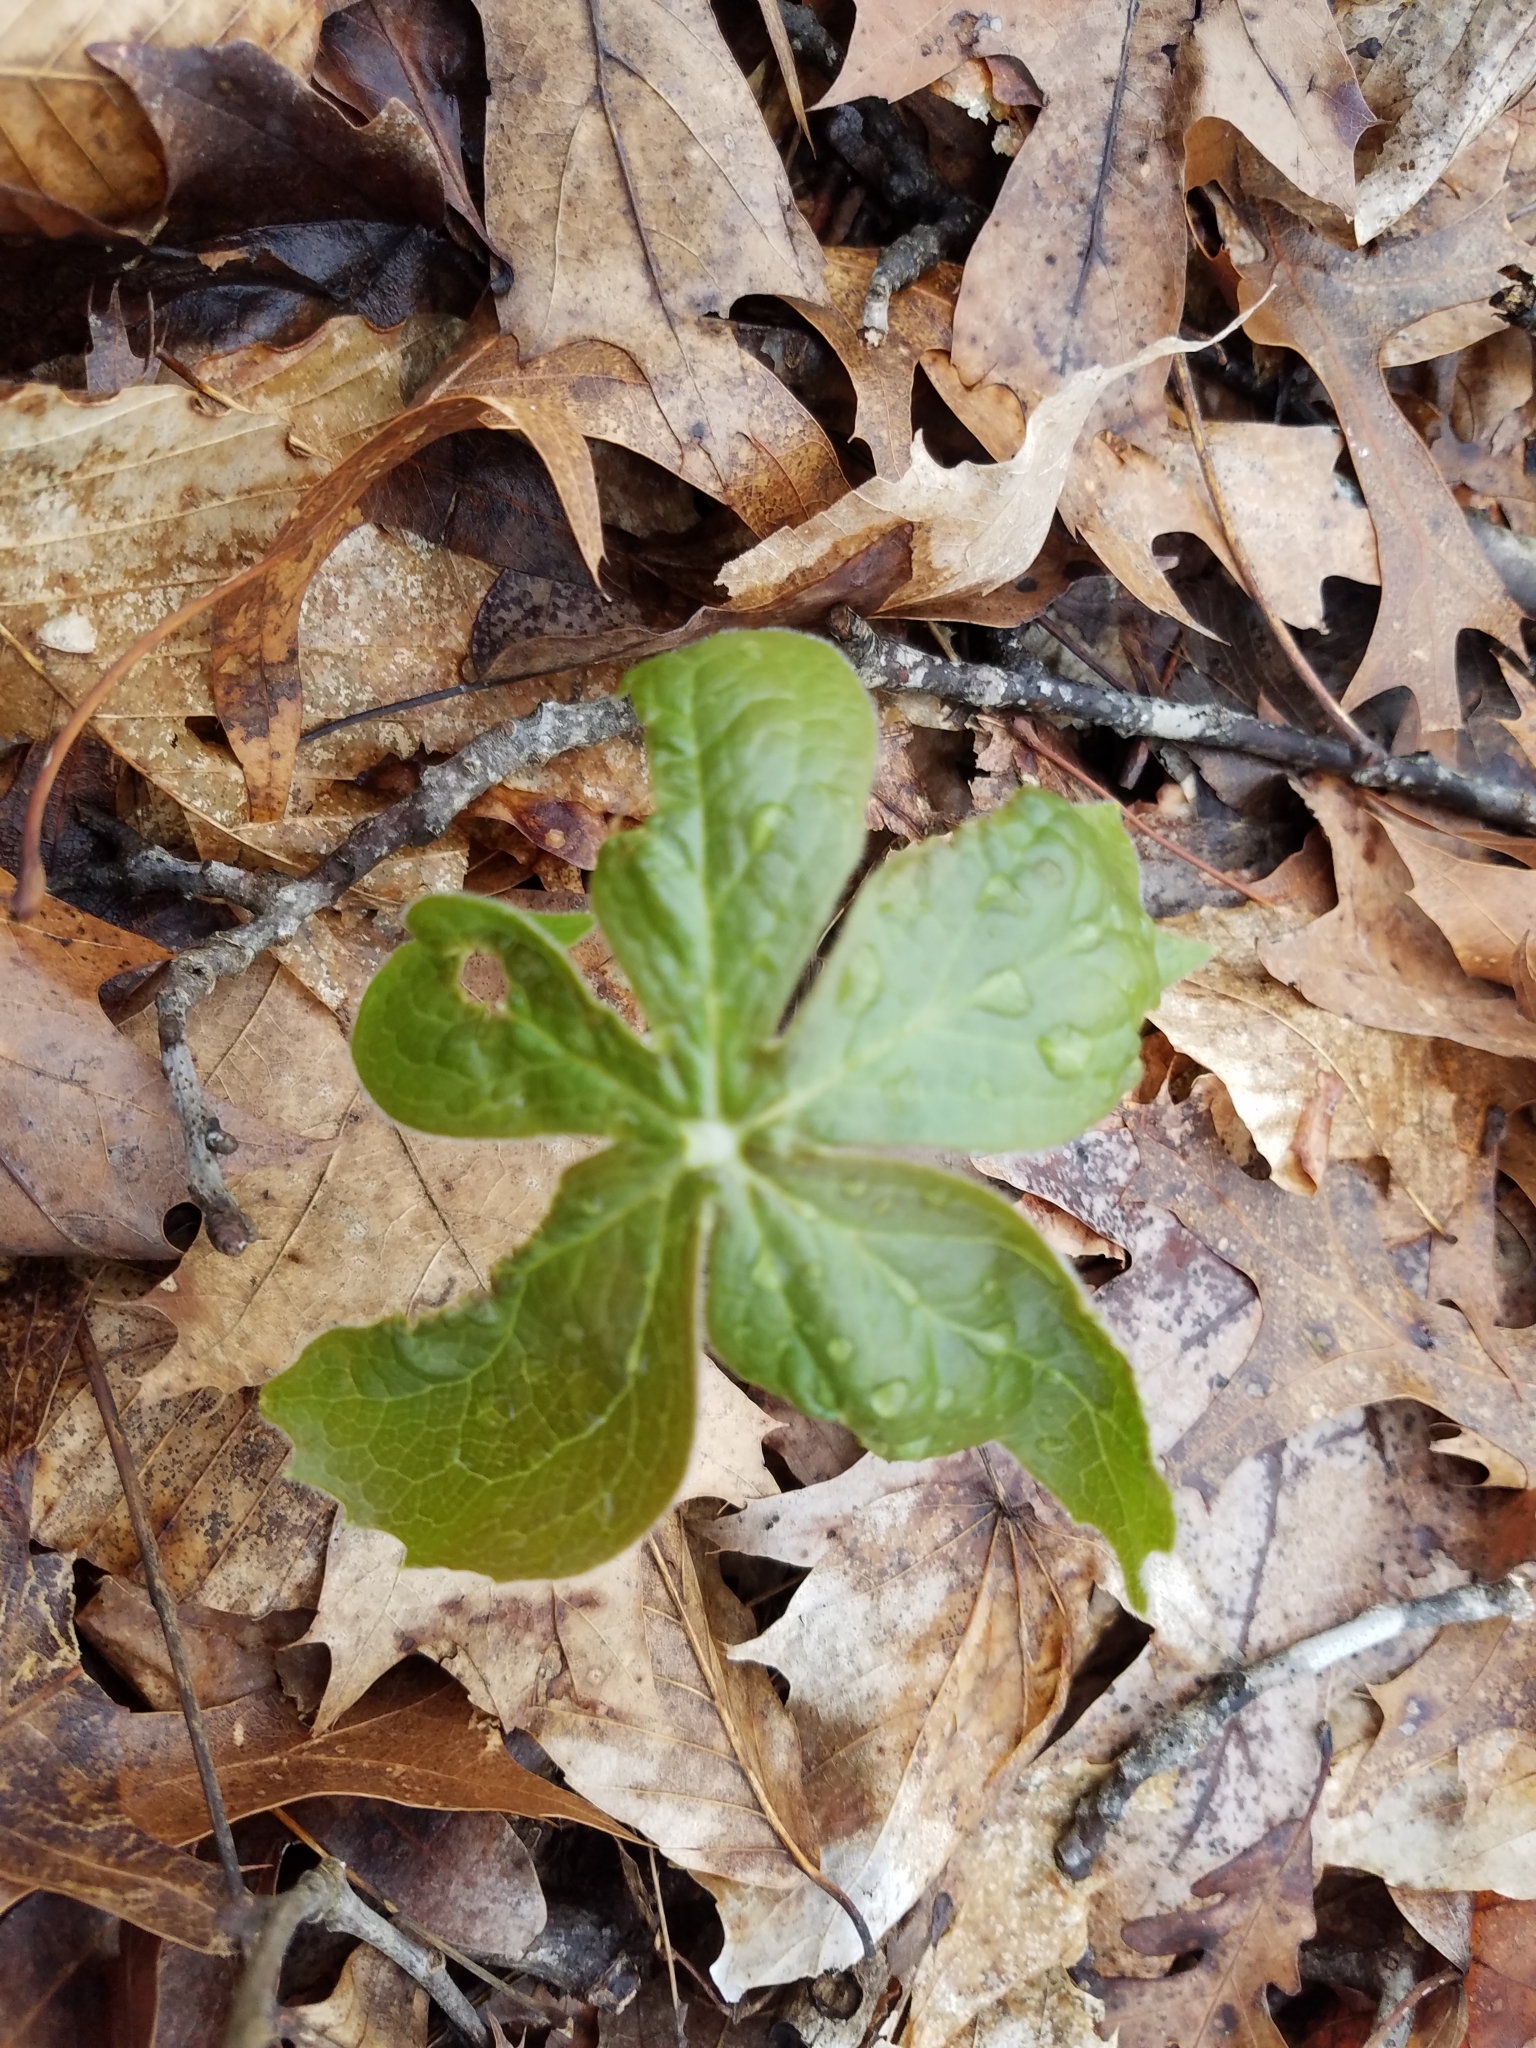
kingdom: Plantae
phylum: Tracheophyta
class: Magnoliopsida
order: Ranunculales
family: Berberidaceae
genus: Podophyllum
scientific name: Podophyllum peltatum
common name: Wild mandrake
